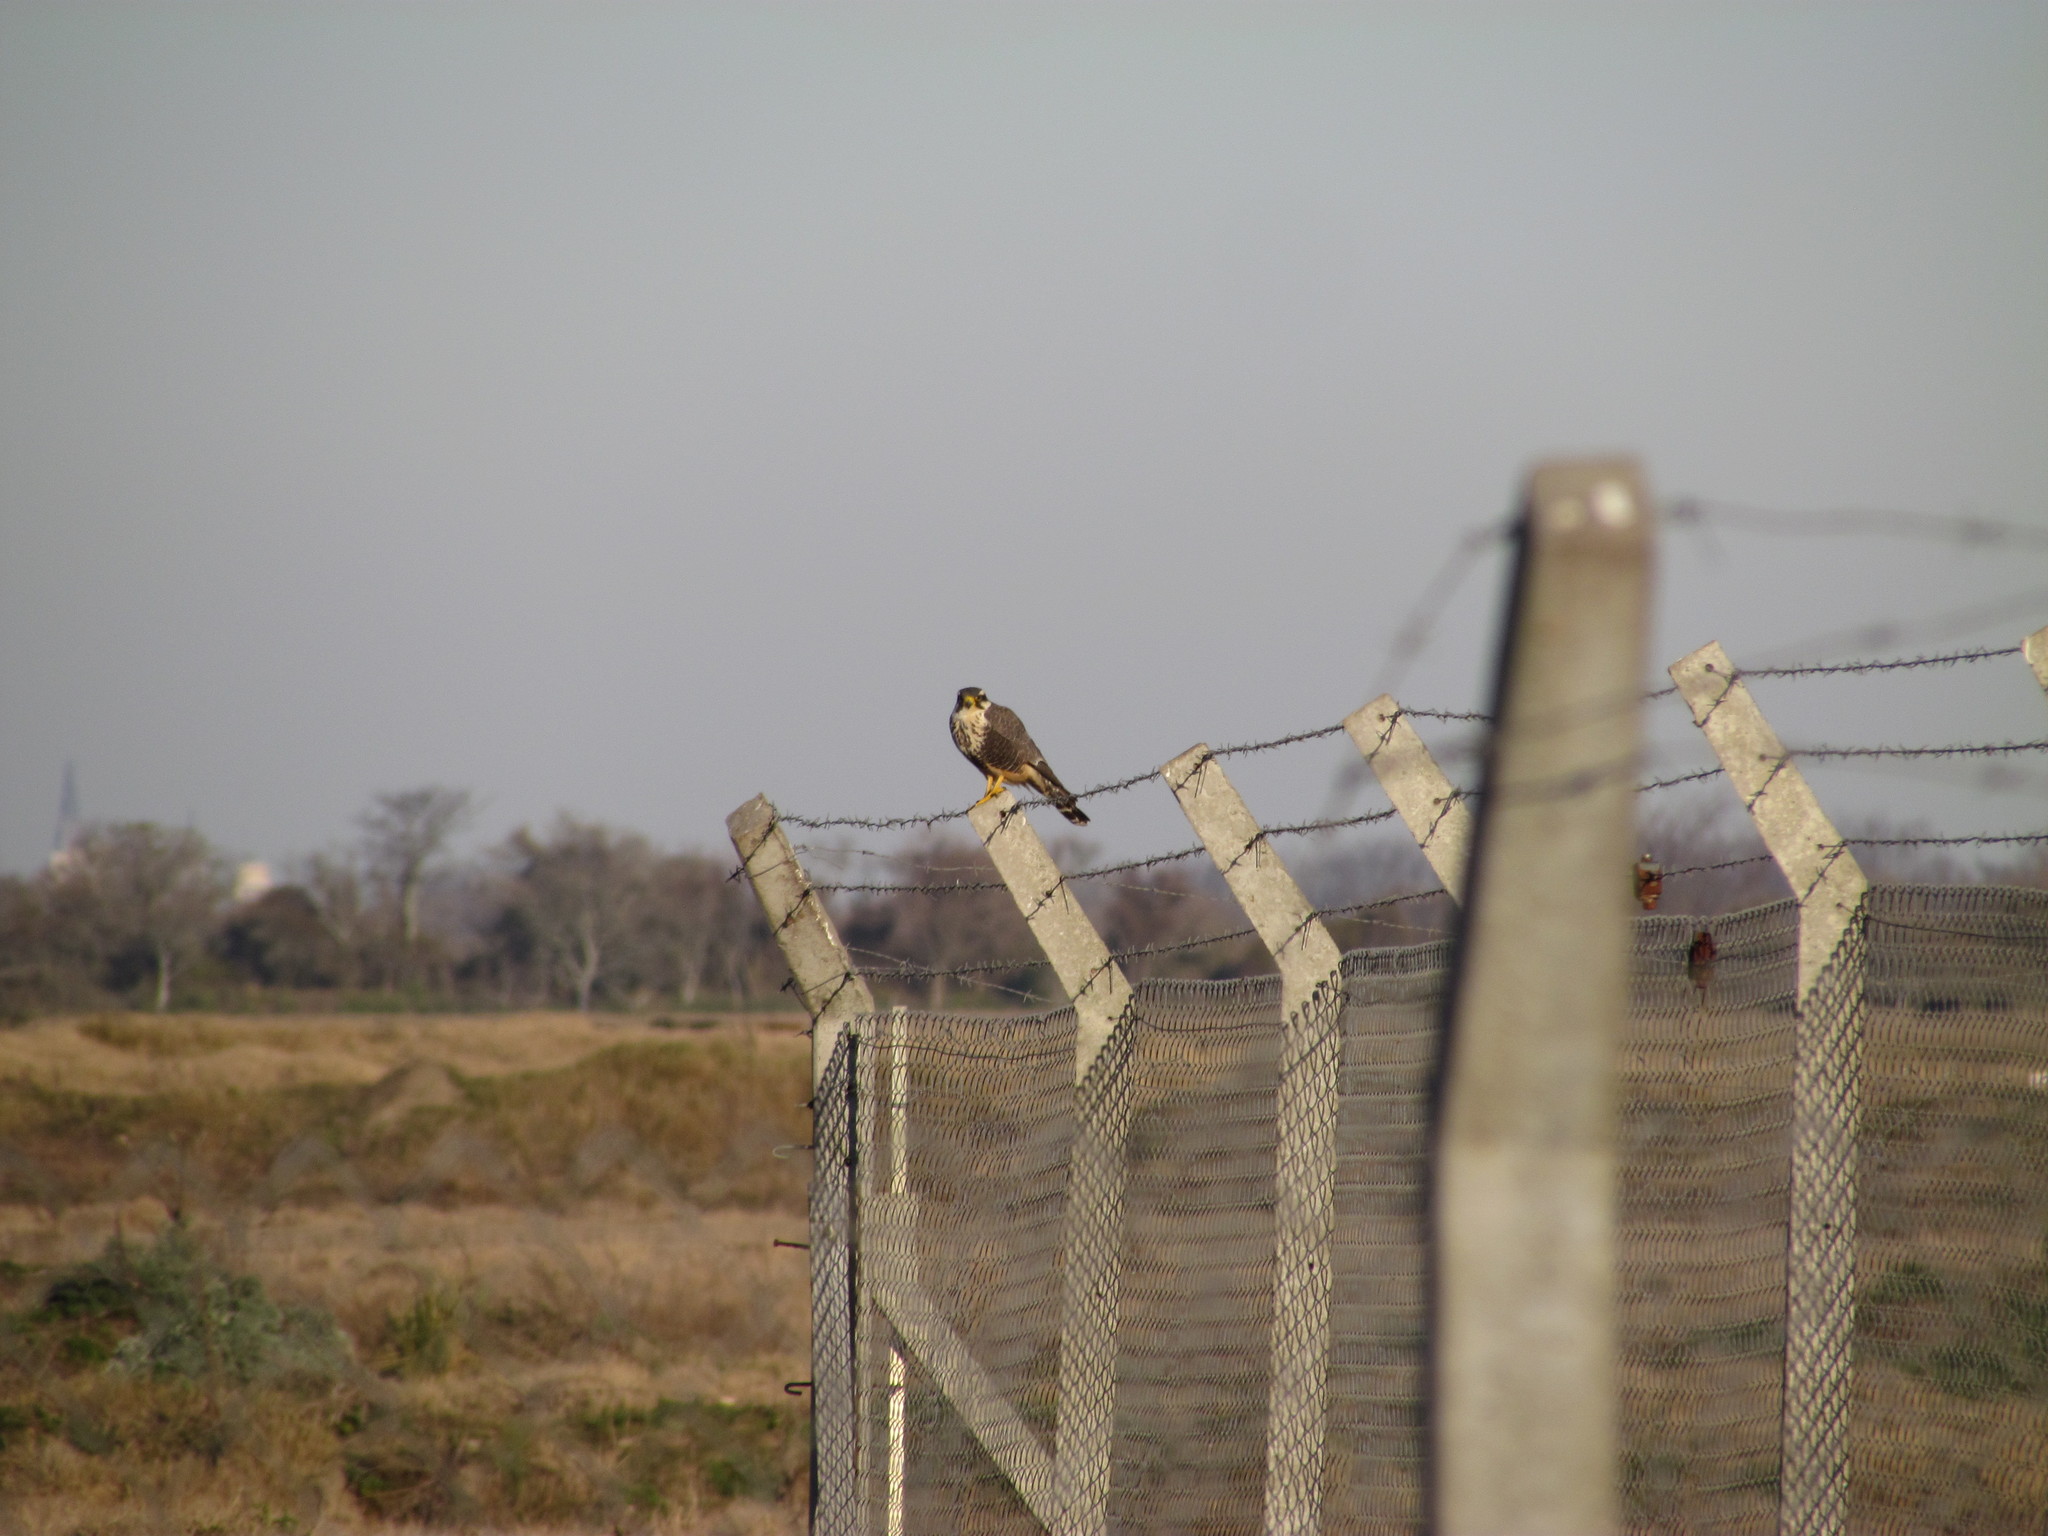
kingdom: Animalia
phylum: Chordata
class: Aves
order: Falconiformes
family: Falconidae
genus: Falco
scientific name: Falco femoralis
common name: Aplomado falcon
